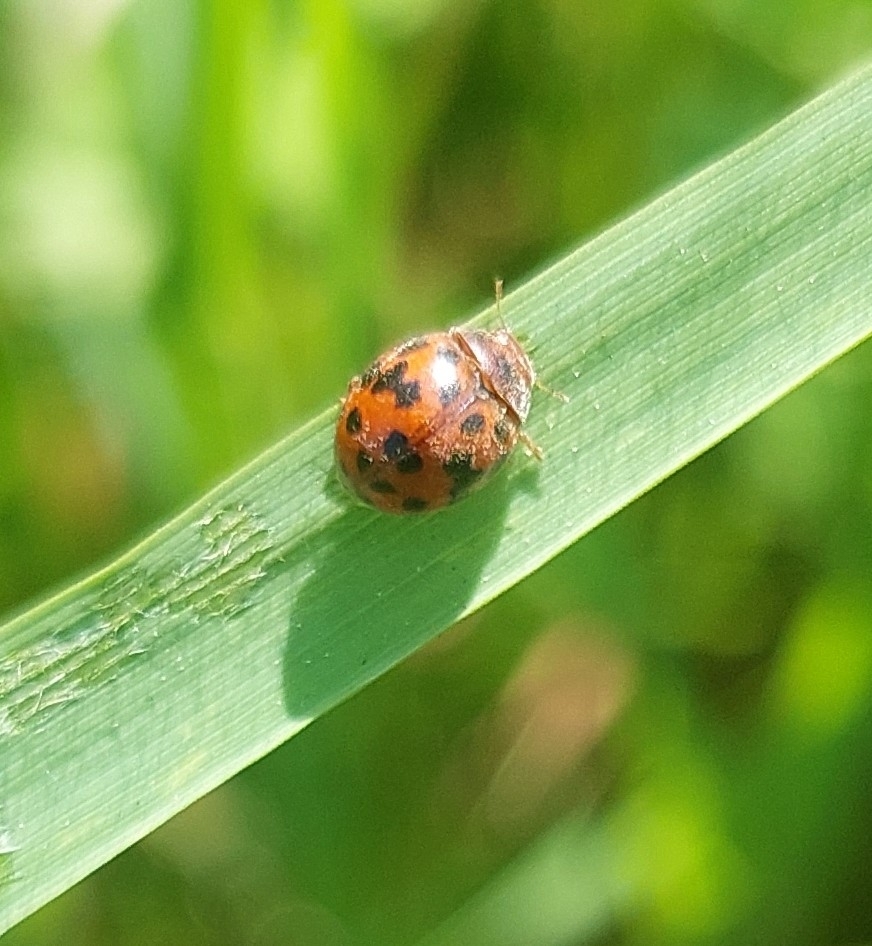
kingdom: Animalia
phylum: Arthropoda
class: Insecta
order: Coleoptera
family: Coccinellidae
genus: Subcoccinella
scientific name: Subcoccinella vigintiquatuorpunctata
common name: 24-spot ladybird
